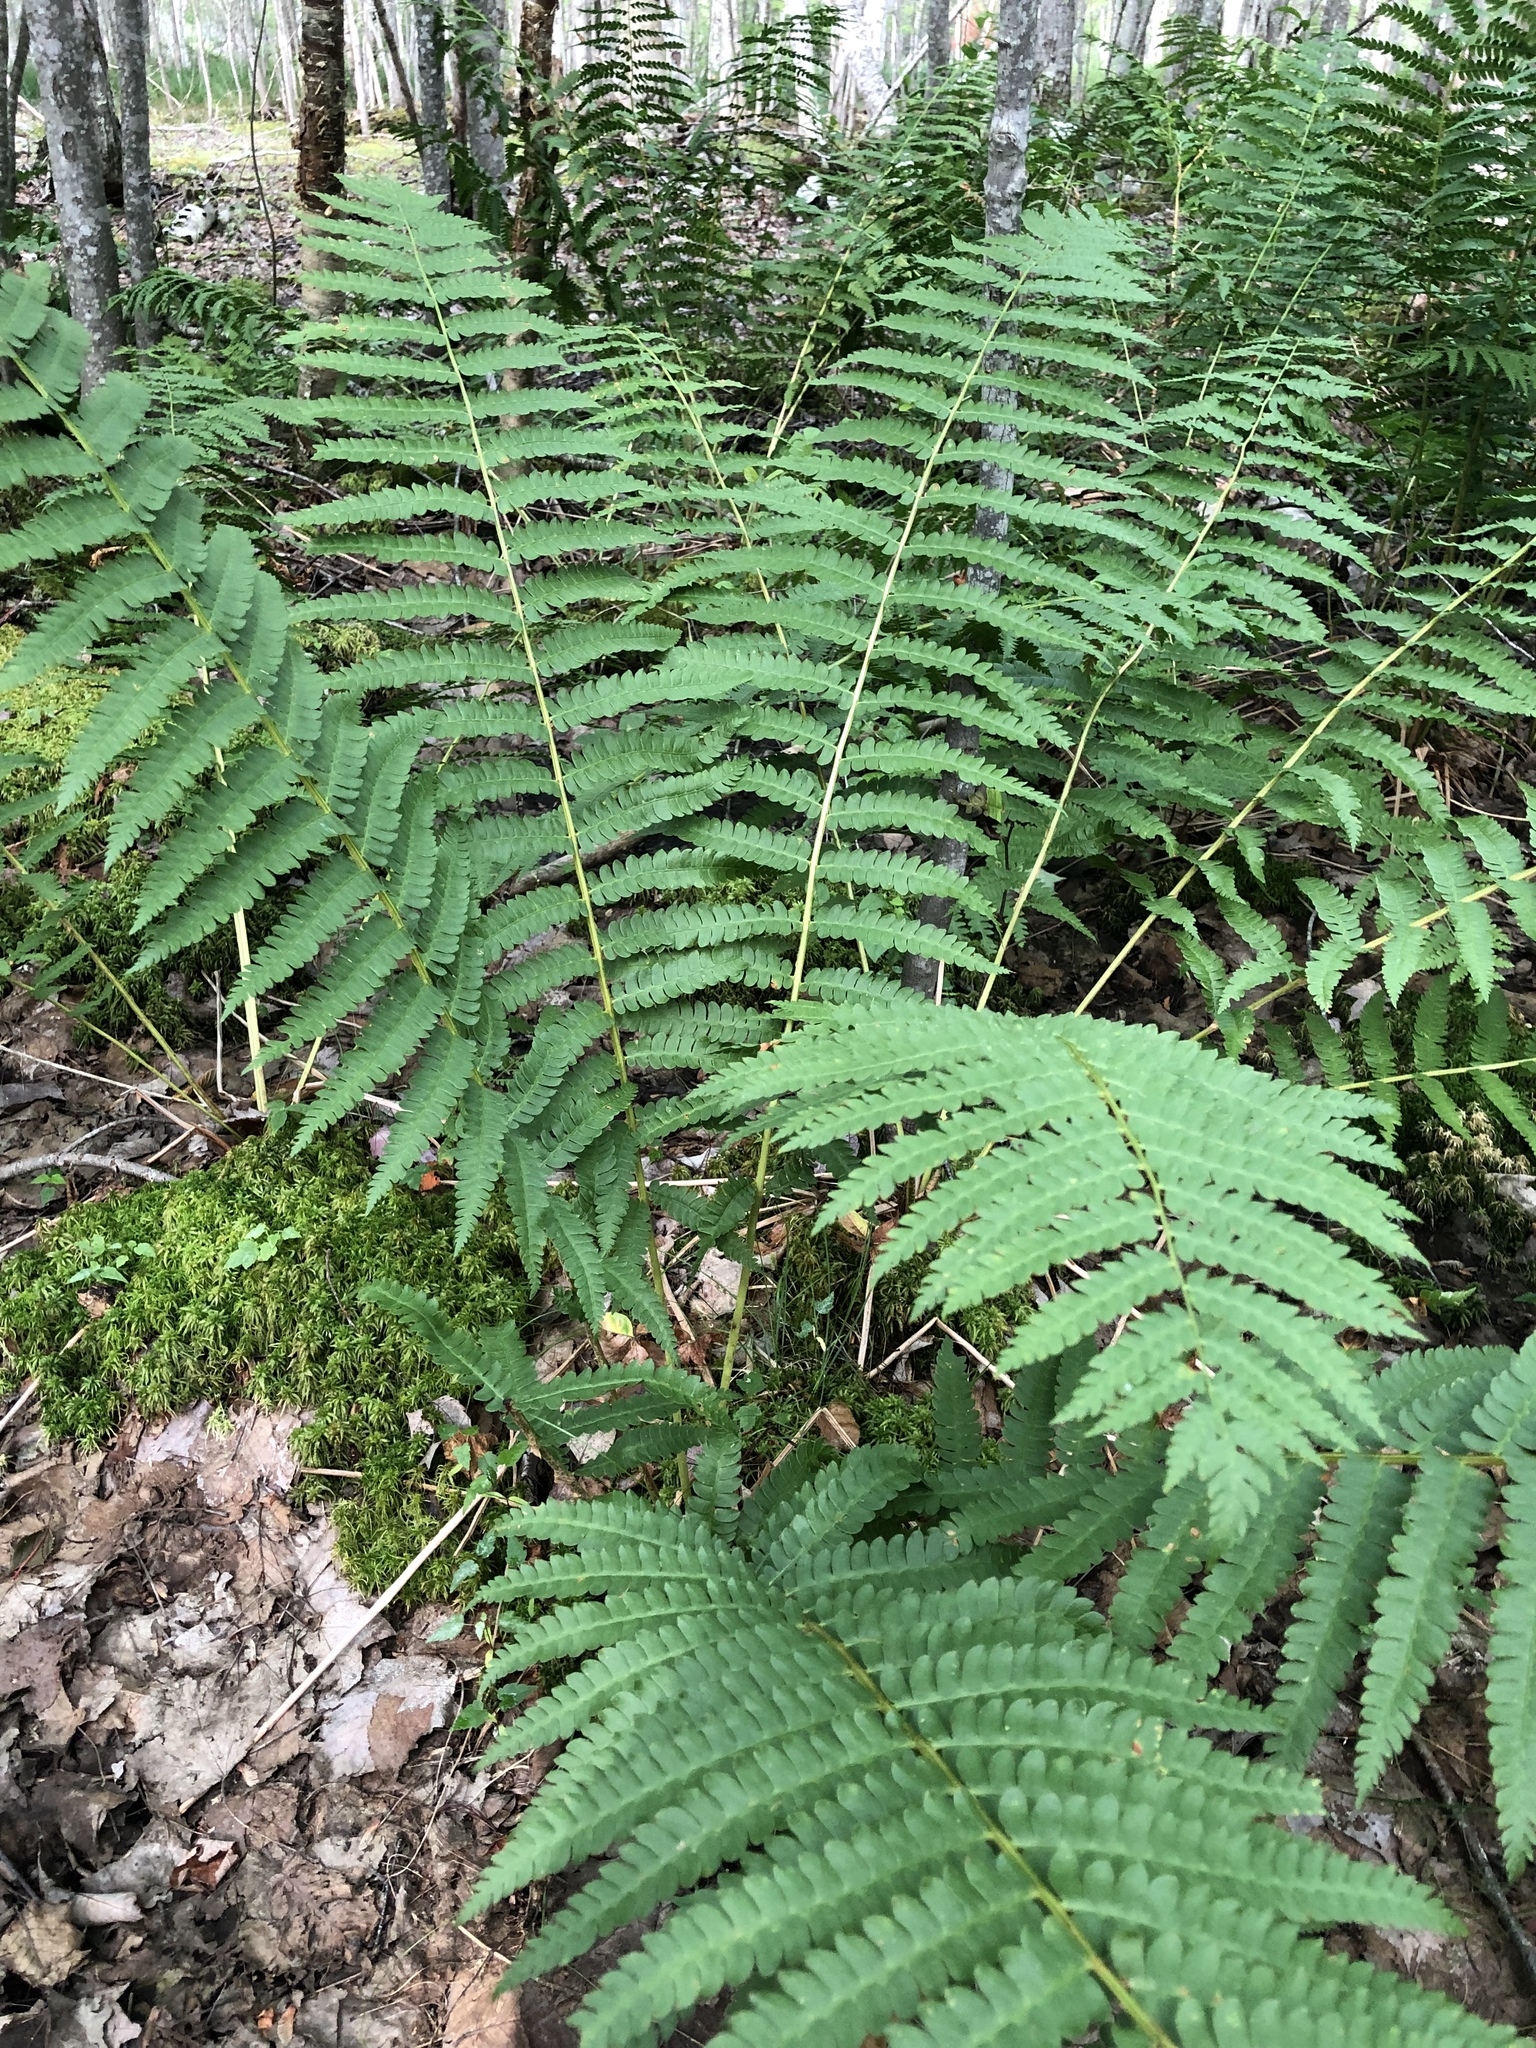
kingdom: Plantae
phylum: Tracheophyta
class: Polypodiopsida
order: Osmundales
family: Osmundaceae
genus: Osmundastrum
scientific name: Osmundastrum cinnamomeum
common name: Cinnamon fern
